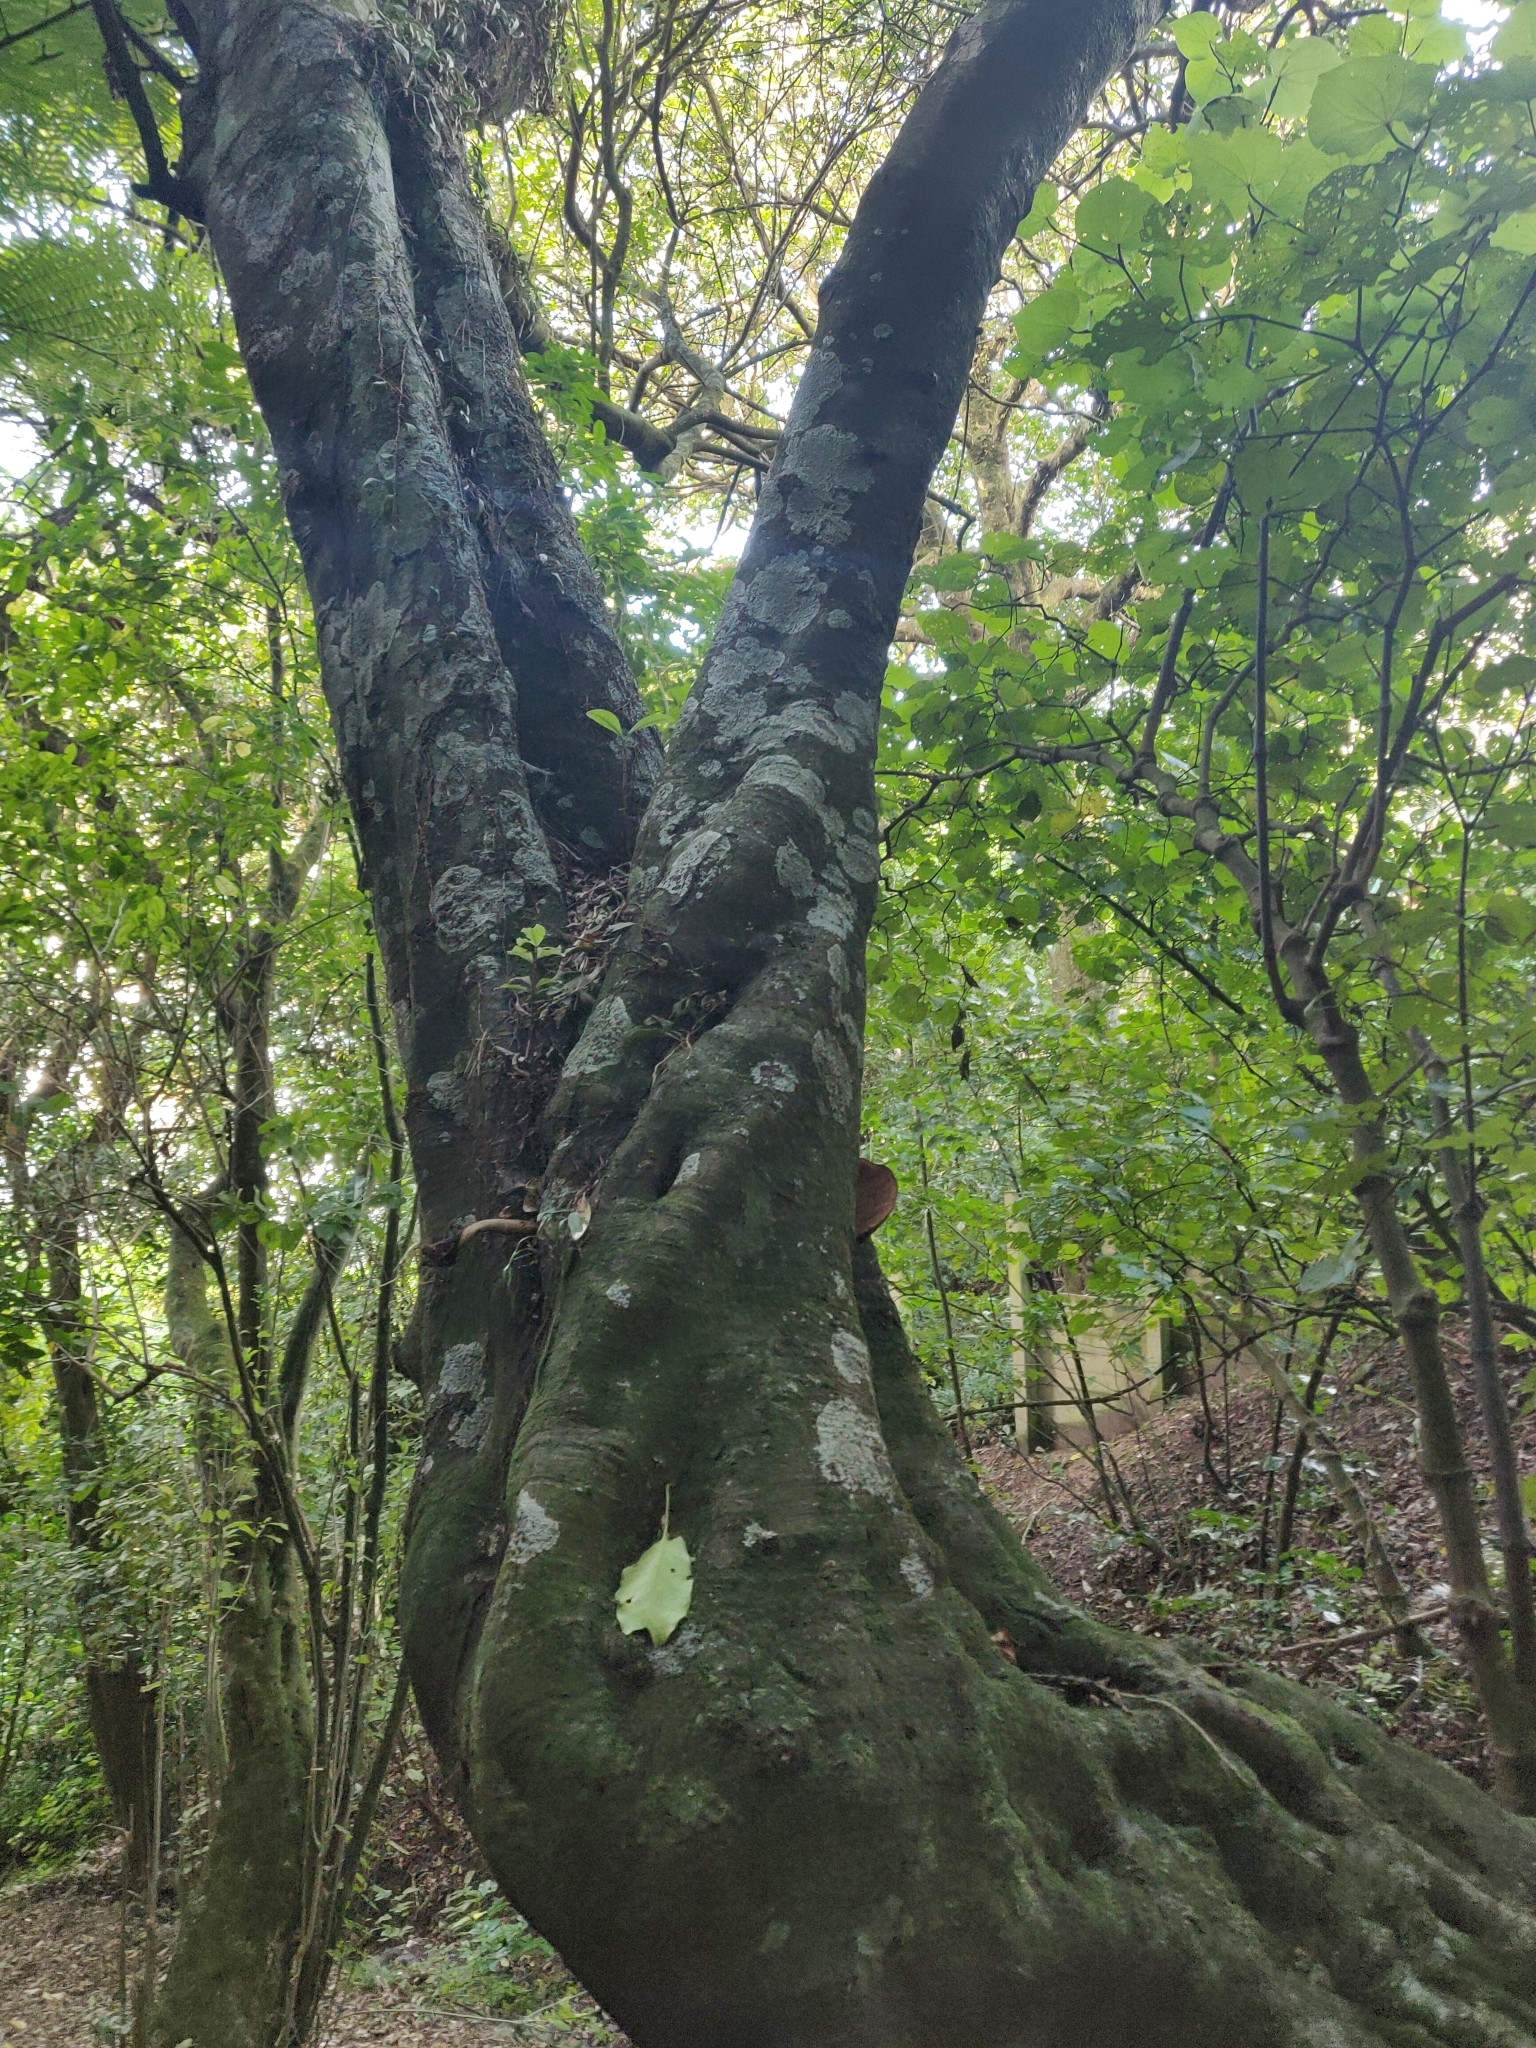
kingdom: Plantae
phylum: Tracheophyta
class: Magnoliopsida
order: Sapindales
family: Meliaceae
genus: Didymocheton
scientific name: Didymocheton spectabilis
